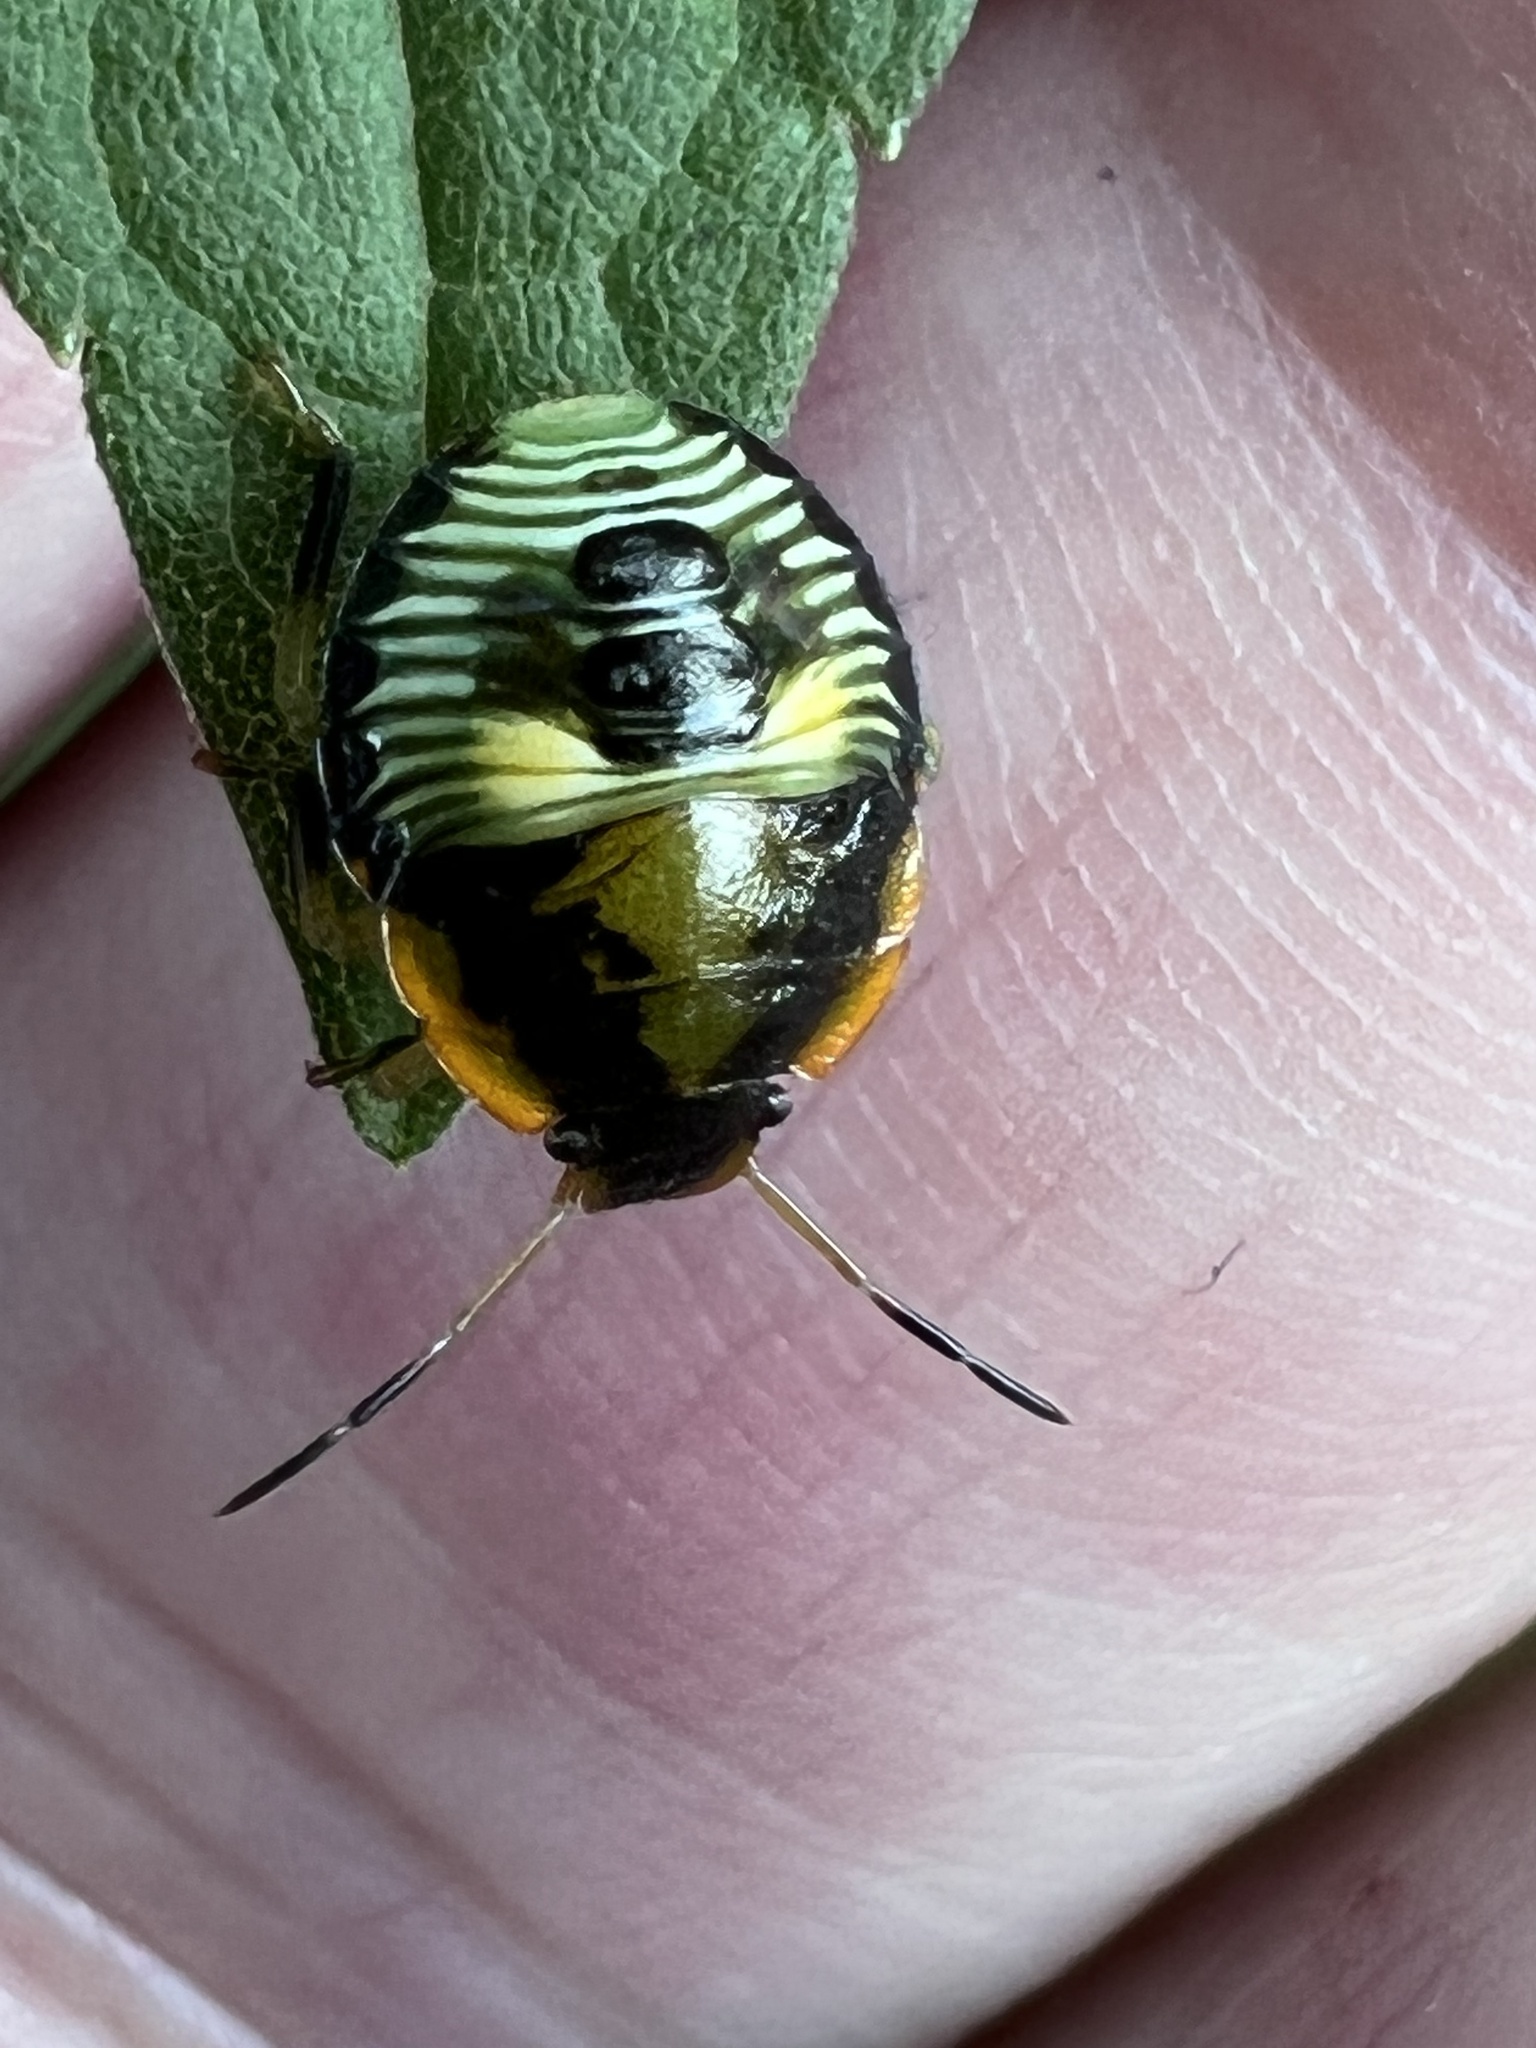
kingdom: Animalia
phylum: Arthropoda
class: Insecta
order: Hemiptera
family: Pentatomidae
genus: Chinavia
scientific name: Chinavia hilaris
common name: Green stink bug
